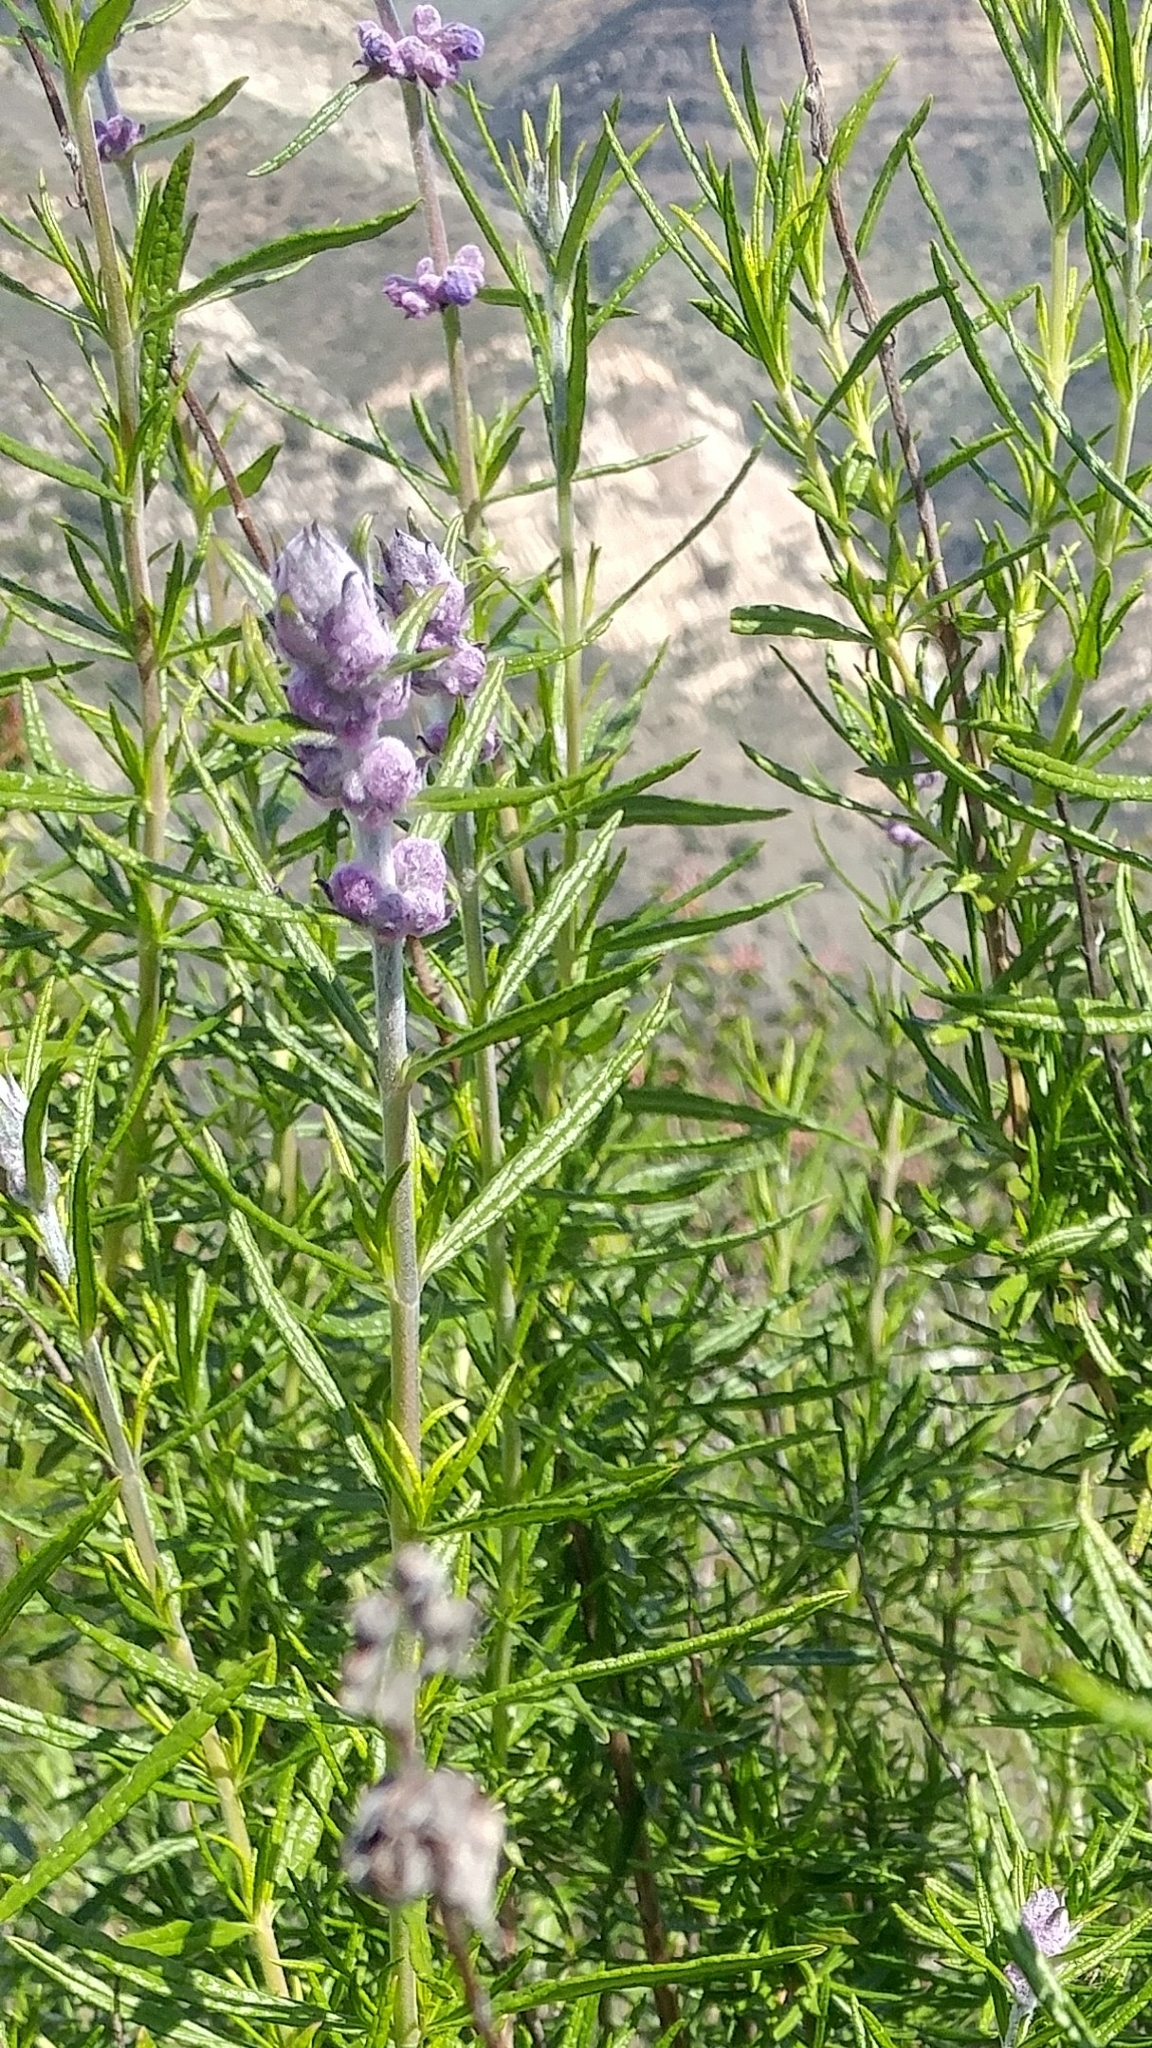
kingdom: Plantae
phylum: Tracheophyta
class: Magnoliopsida
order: Lamiales
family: Lamiaceae
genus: Trichostema
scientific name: Trichostema lanatum
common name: Woolly bluecurls
